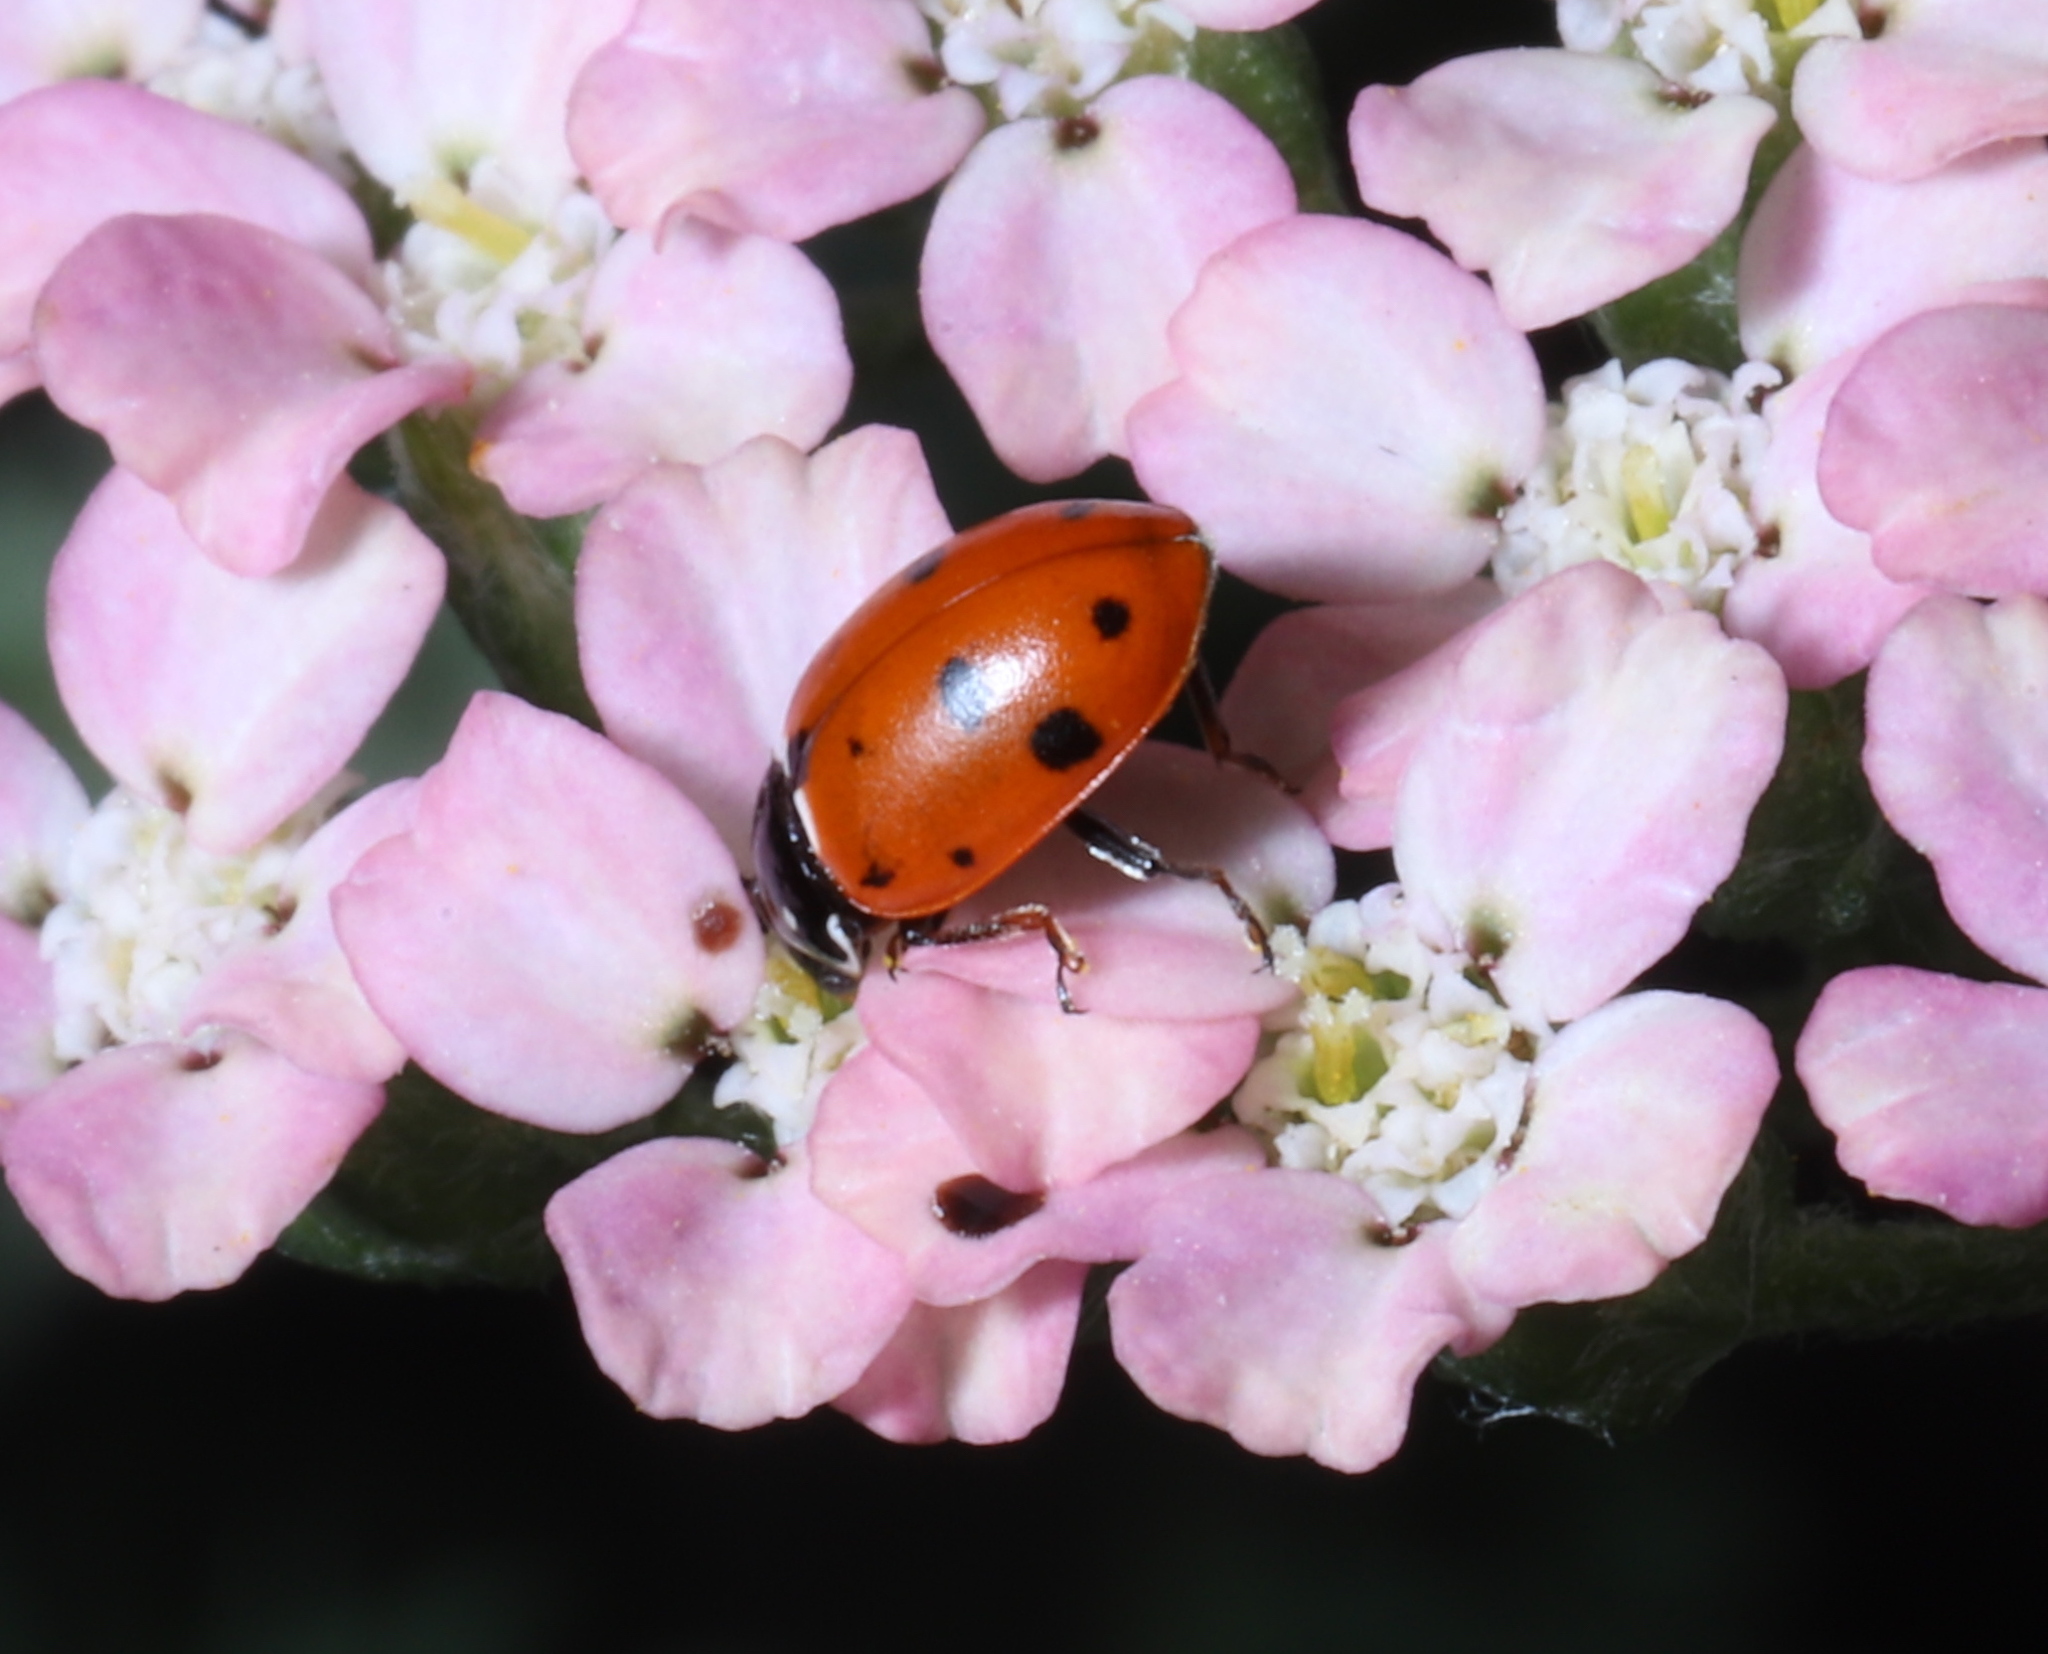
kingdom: Animalia
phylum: Arthropoda
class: Insecta
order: Coleoptera
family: Coccinellidae
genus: Hippodamia
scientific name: Hippodamia variegata
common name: Ladybird beetle
